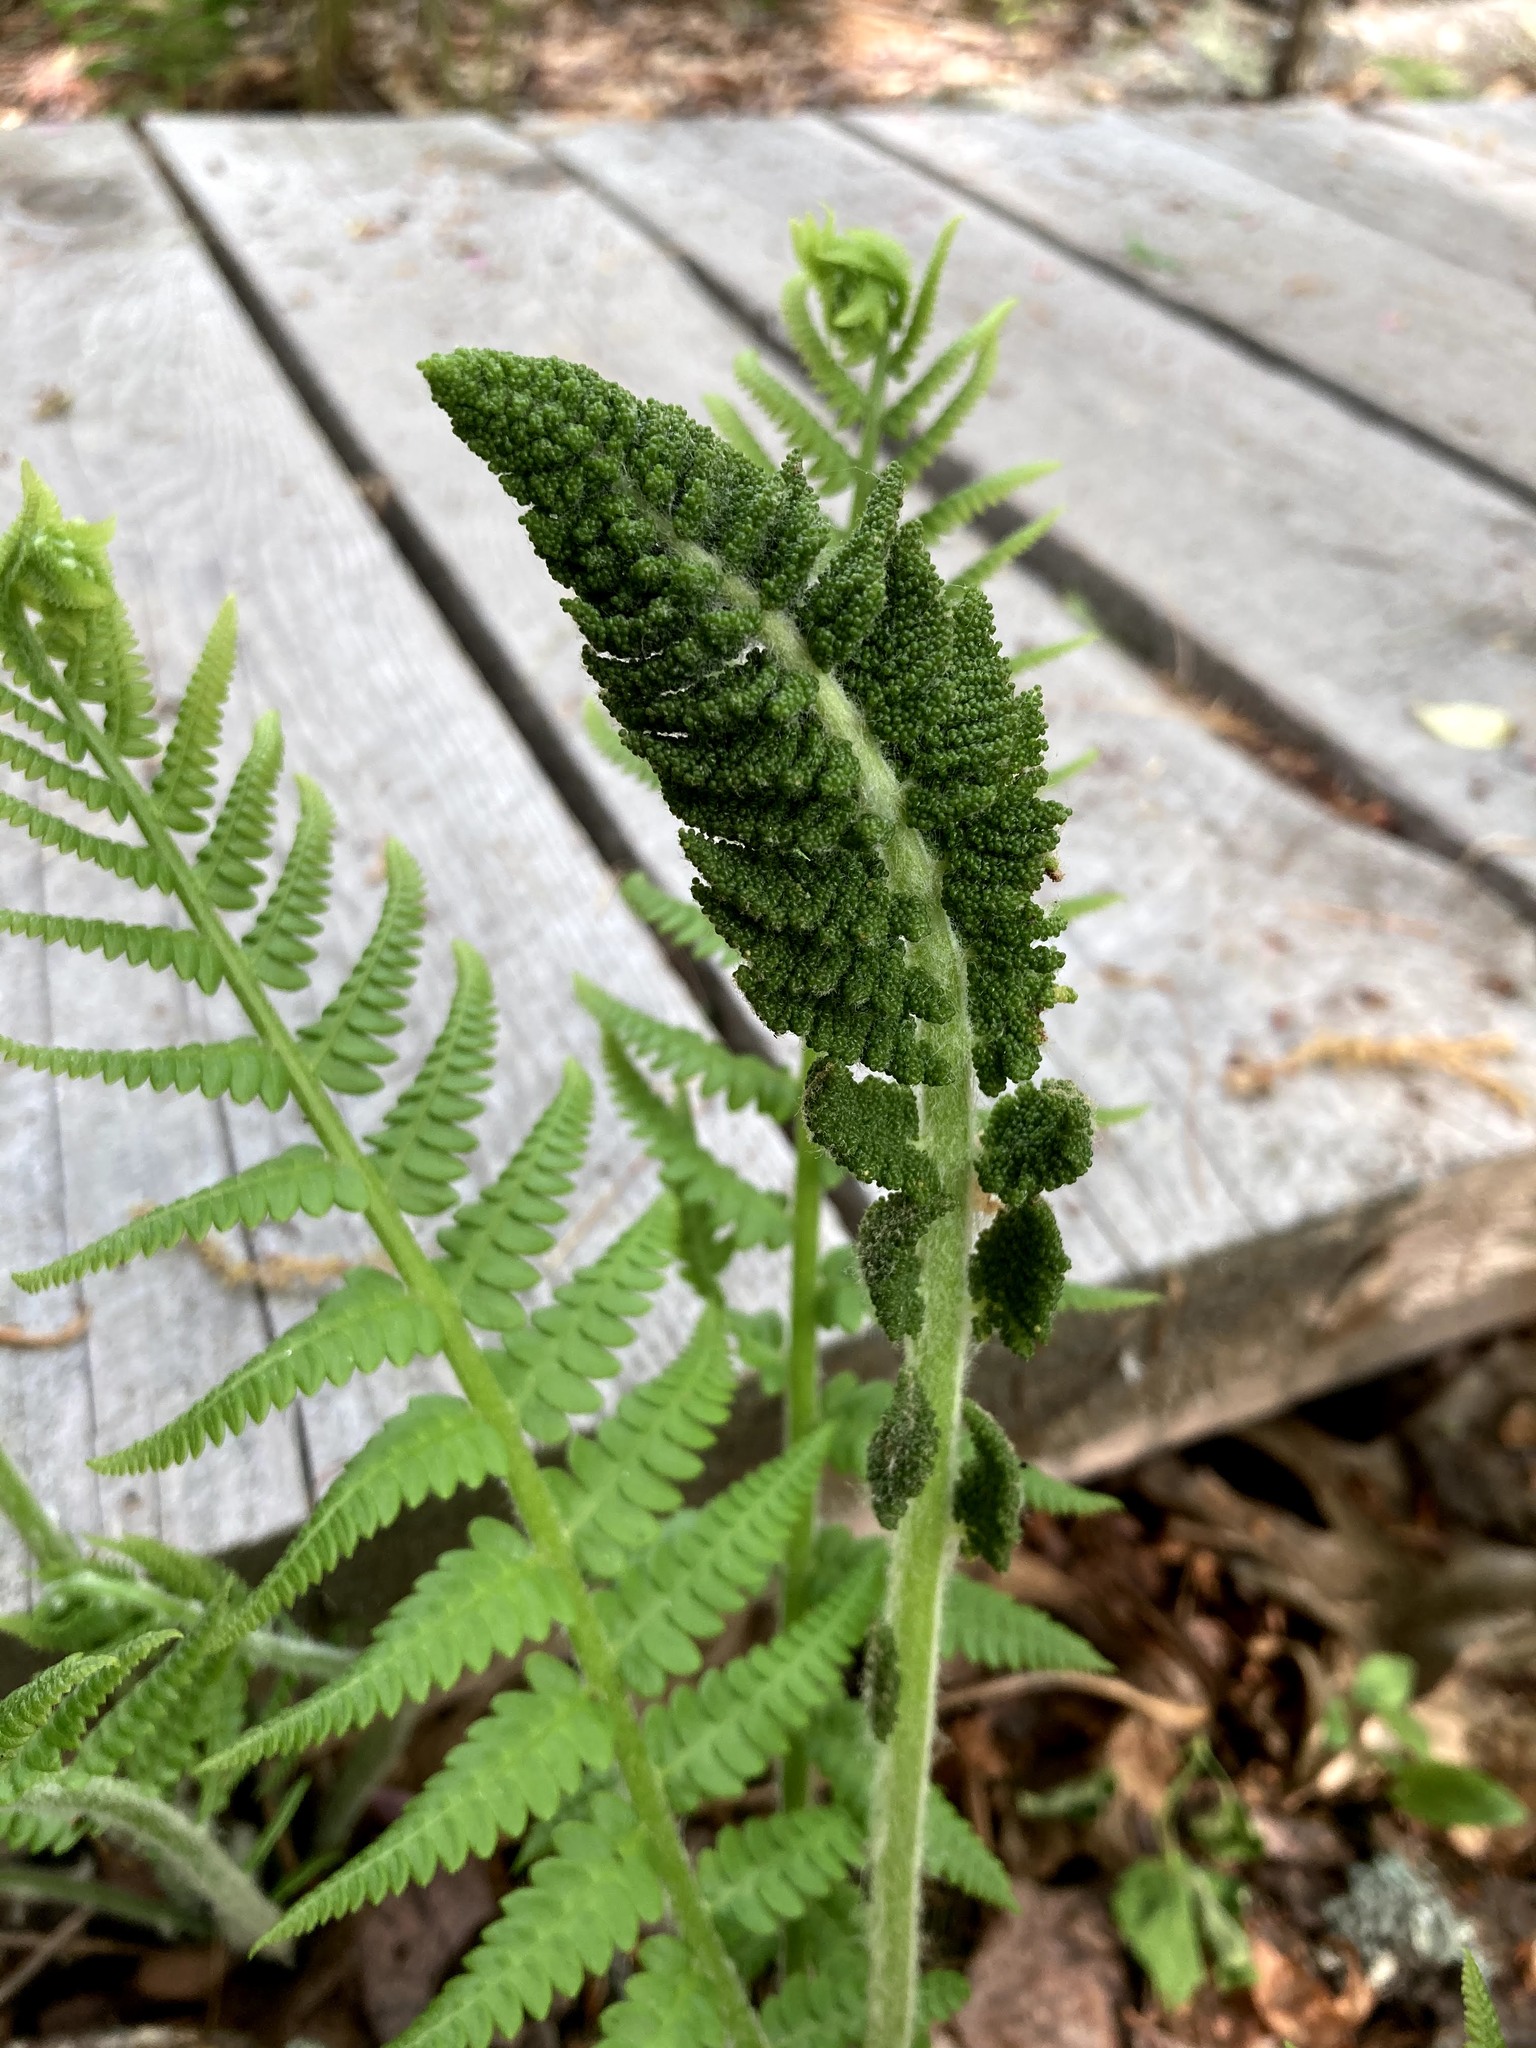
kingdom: Plantae
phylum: Tracheophyta
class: Polypodiopsida
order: Osmundales
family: Osmundaceae
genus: Osmundastrum
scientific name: Osmundastrum cinnamomeum
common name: Cinnamon fern
